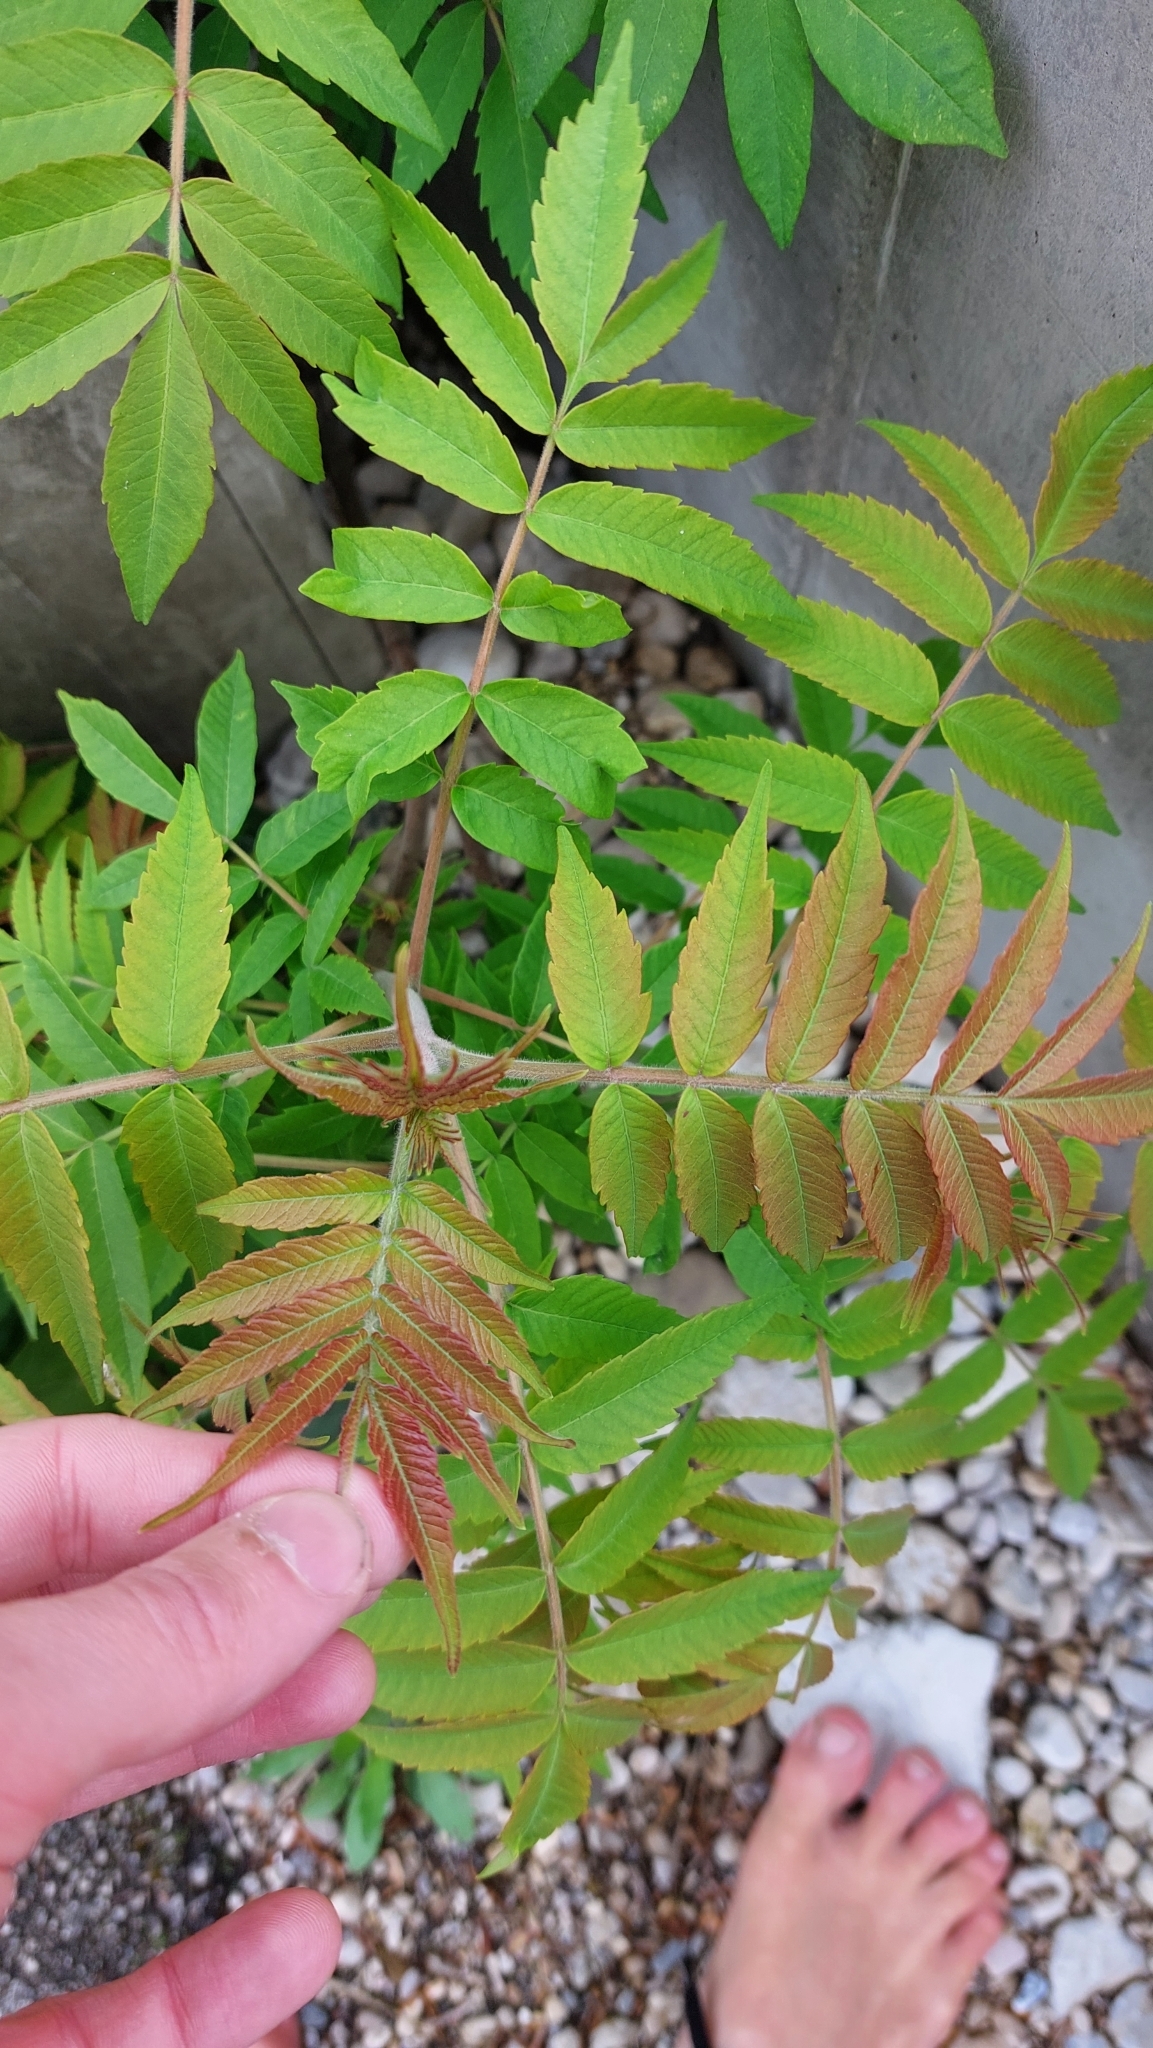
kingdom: Plantae
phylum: Tracheophyta
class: Magnoliopsida
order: Sapindales
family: Anacardiaceae
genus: Rhus
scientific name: Rhus typhina
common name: Staghorn sumac
